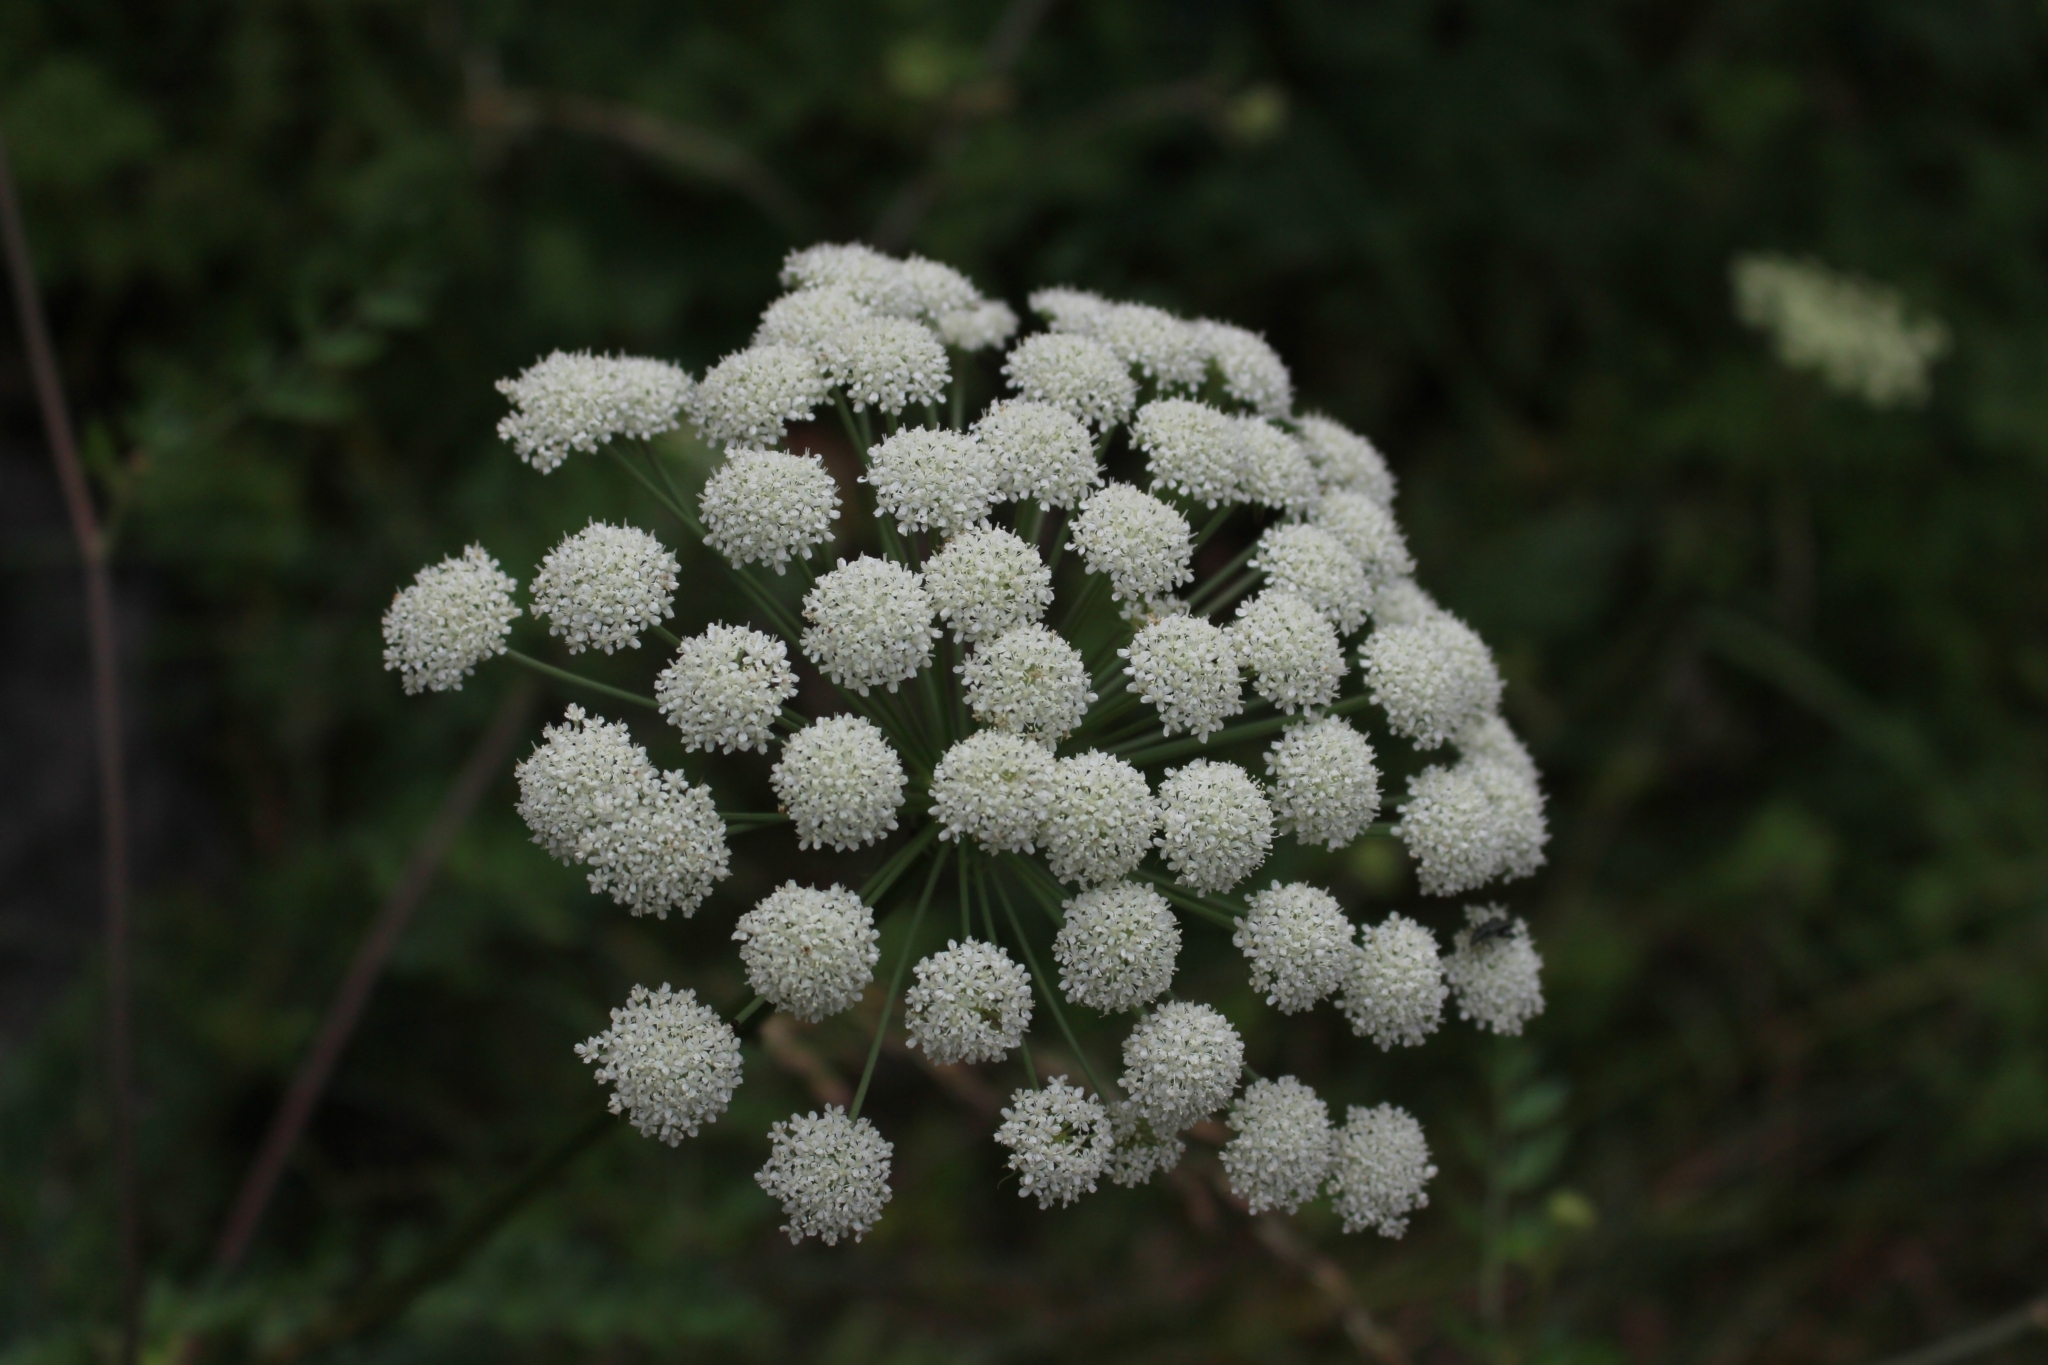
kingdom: Plantae
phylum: Tracheophyta
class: Magnoliopsida
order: Apiales
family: Apiaceae
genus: Seseli
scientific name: Seseli libanotis
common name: Mooncarrot
